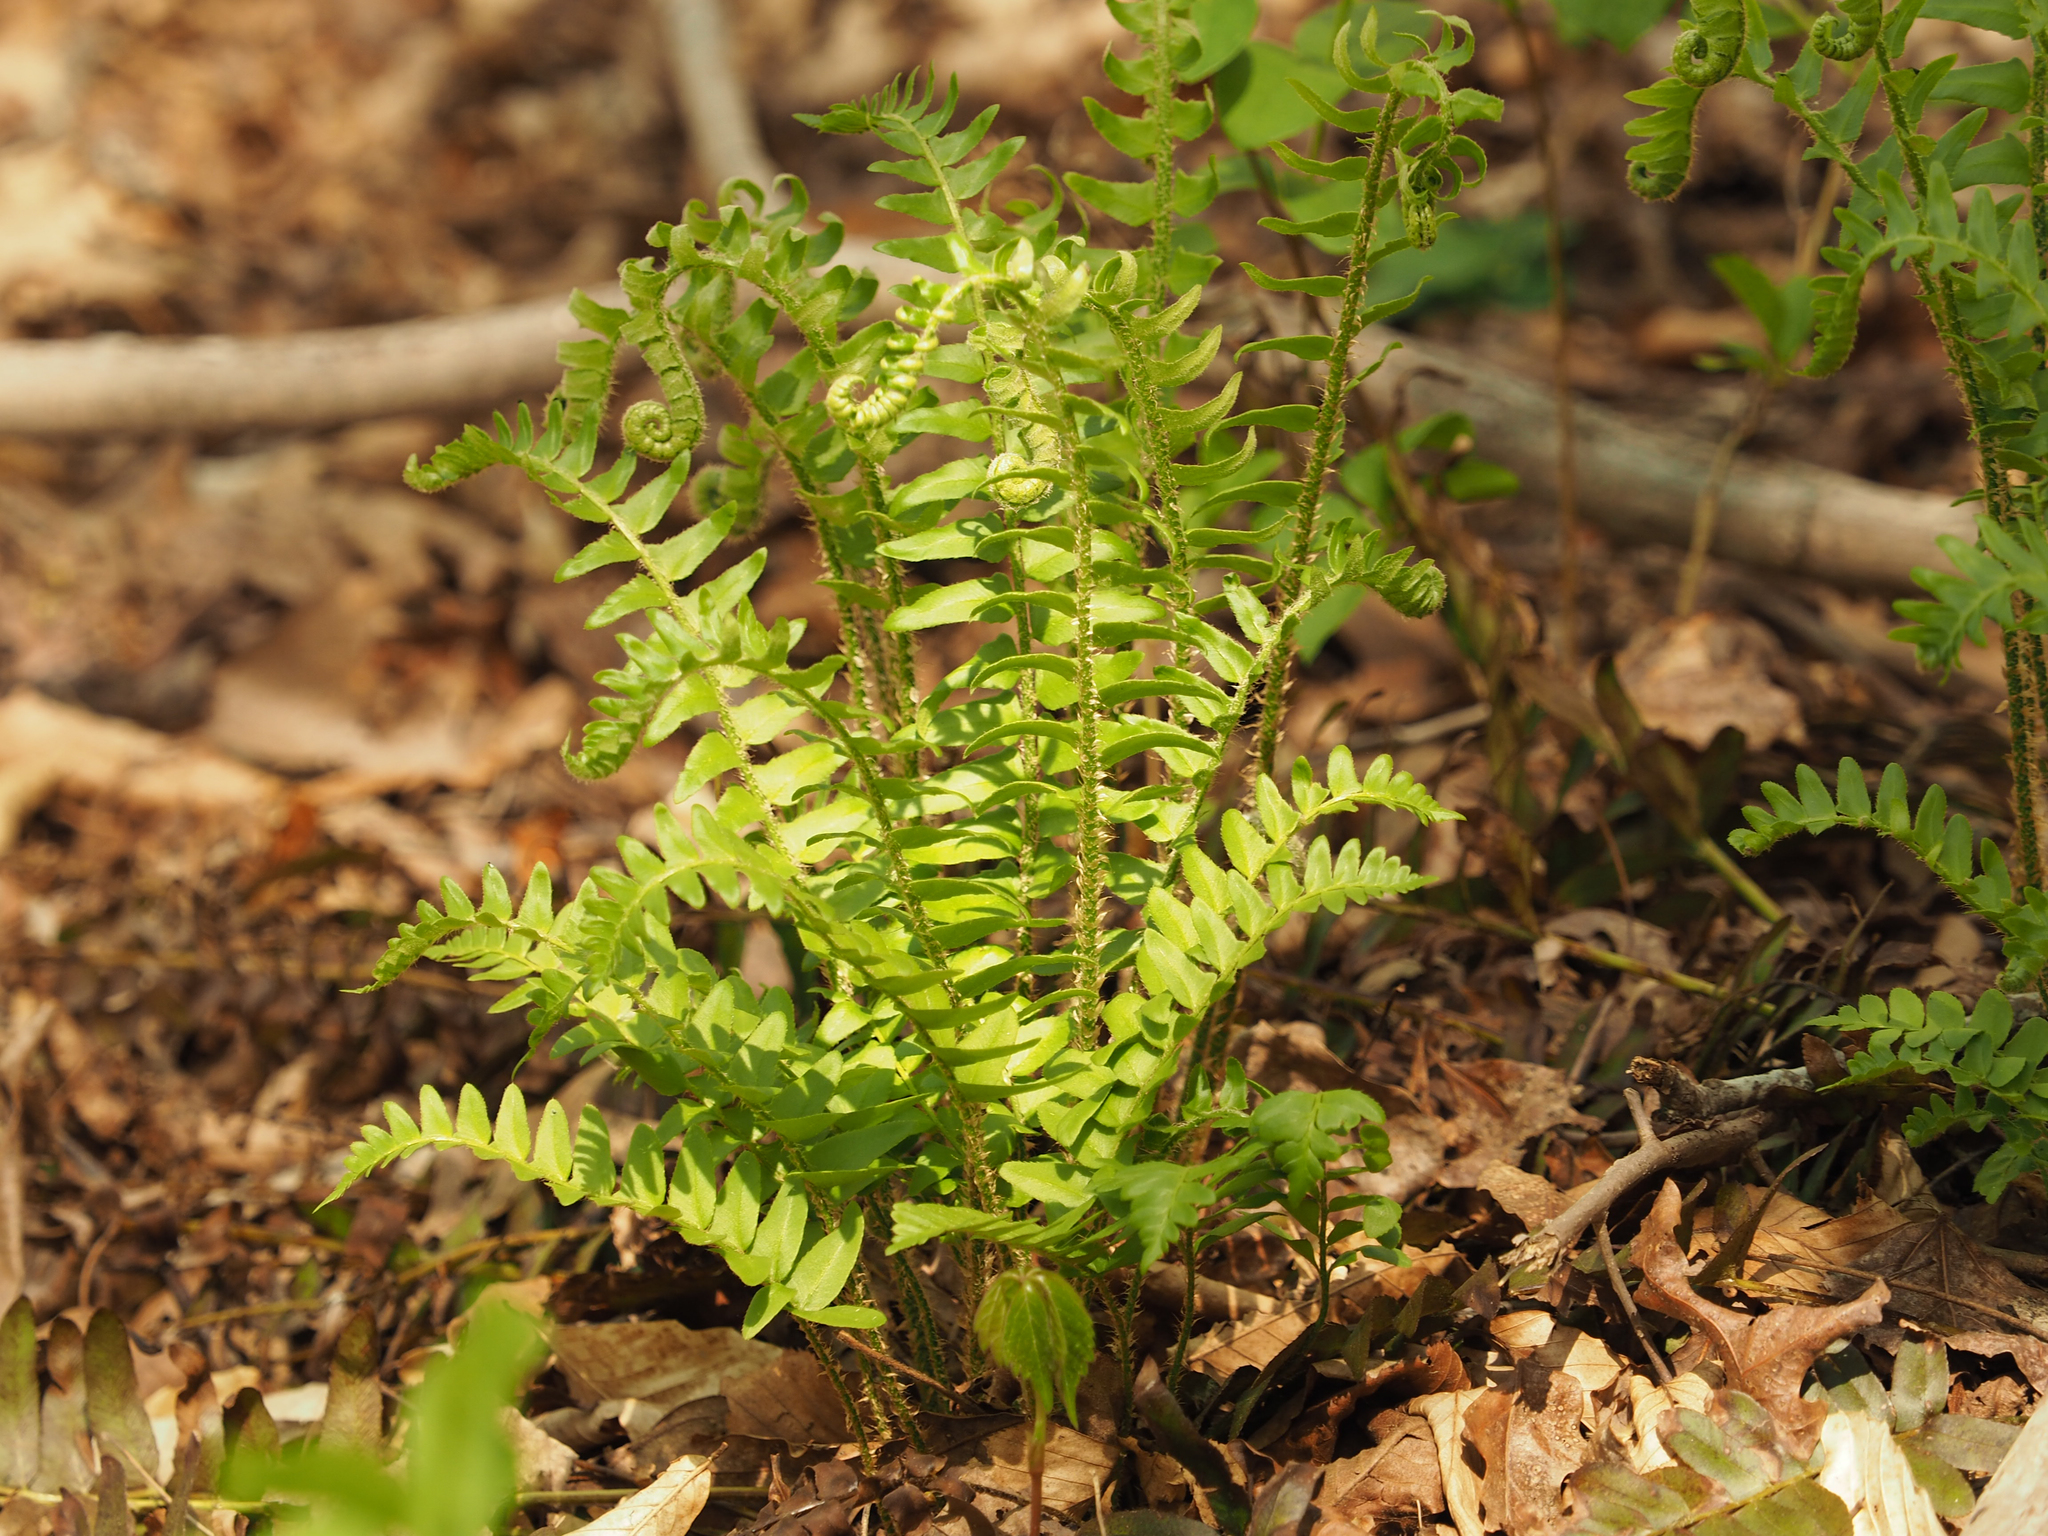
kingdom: Plantae
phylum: Tracheophyta
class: Polypodiopsida
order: Polypodiales
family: Dryopteridaceae
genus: Polystichum
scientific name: Polystichum acrostichoides
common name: Christmas fern
